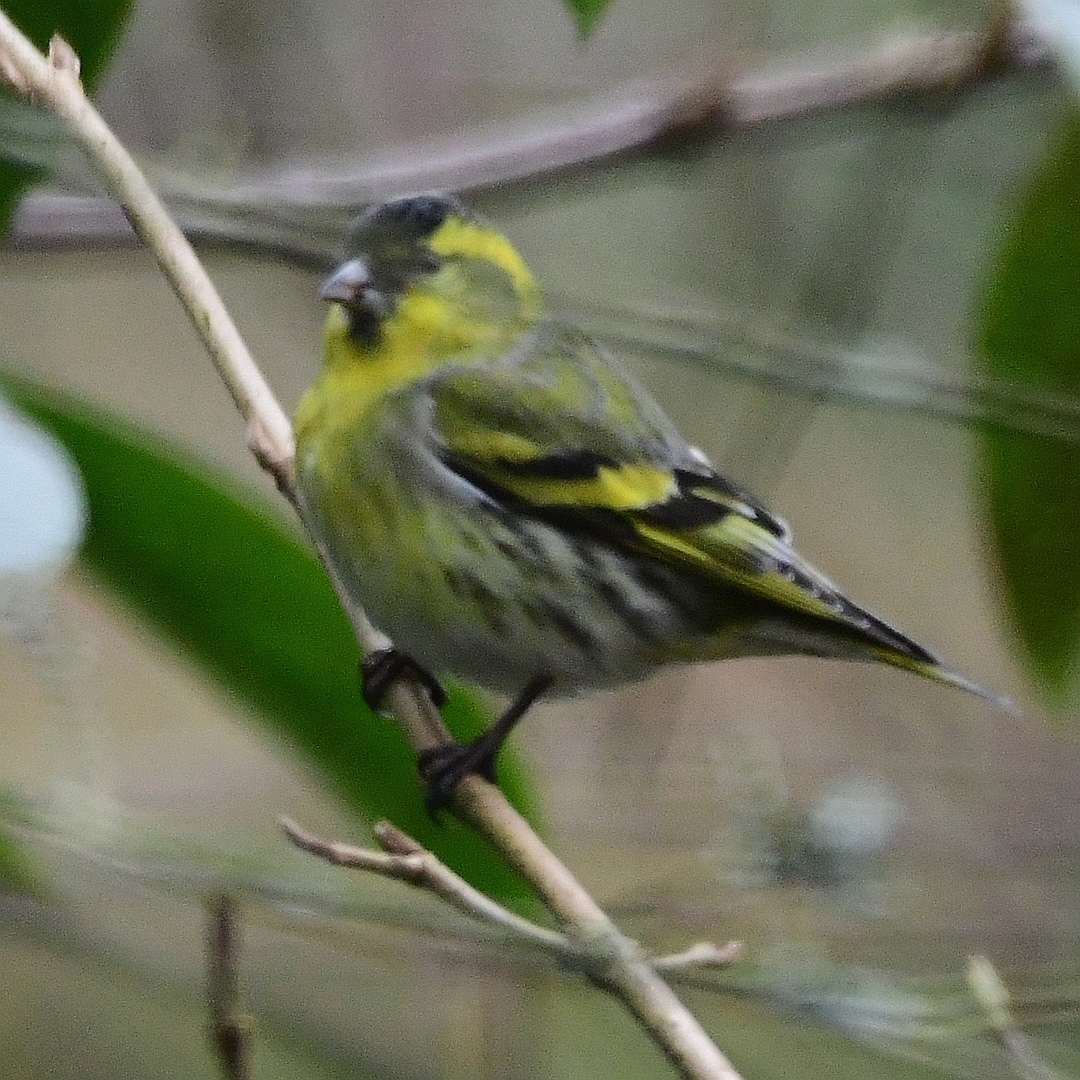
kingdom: Animalia
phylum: Chordata
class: Aves
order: Passeriformes
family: Fringillidae
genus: Spinus
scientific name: Spinus spinus
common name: Eurasian siskin
